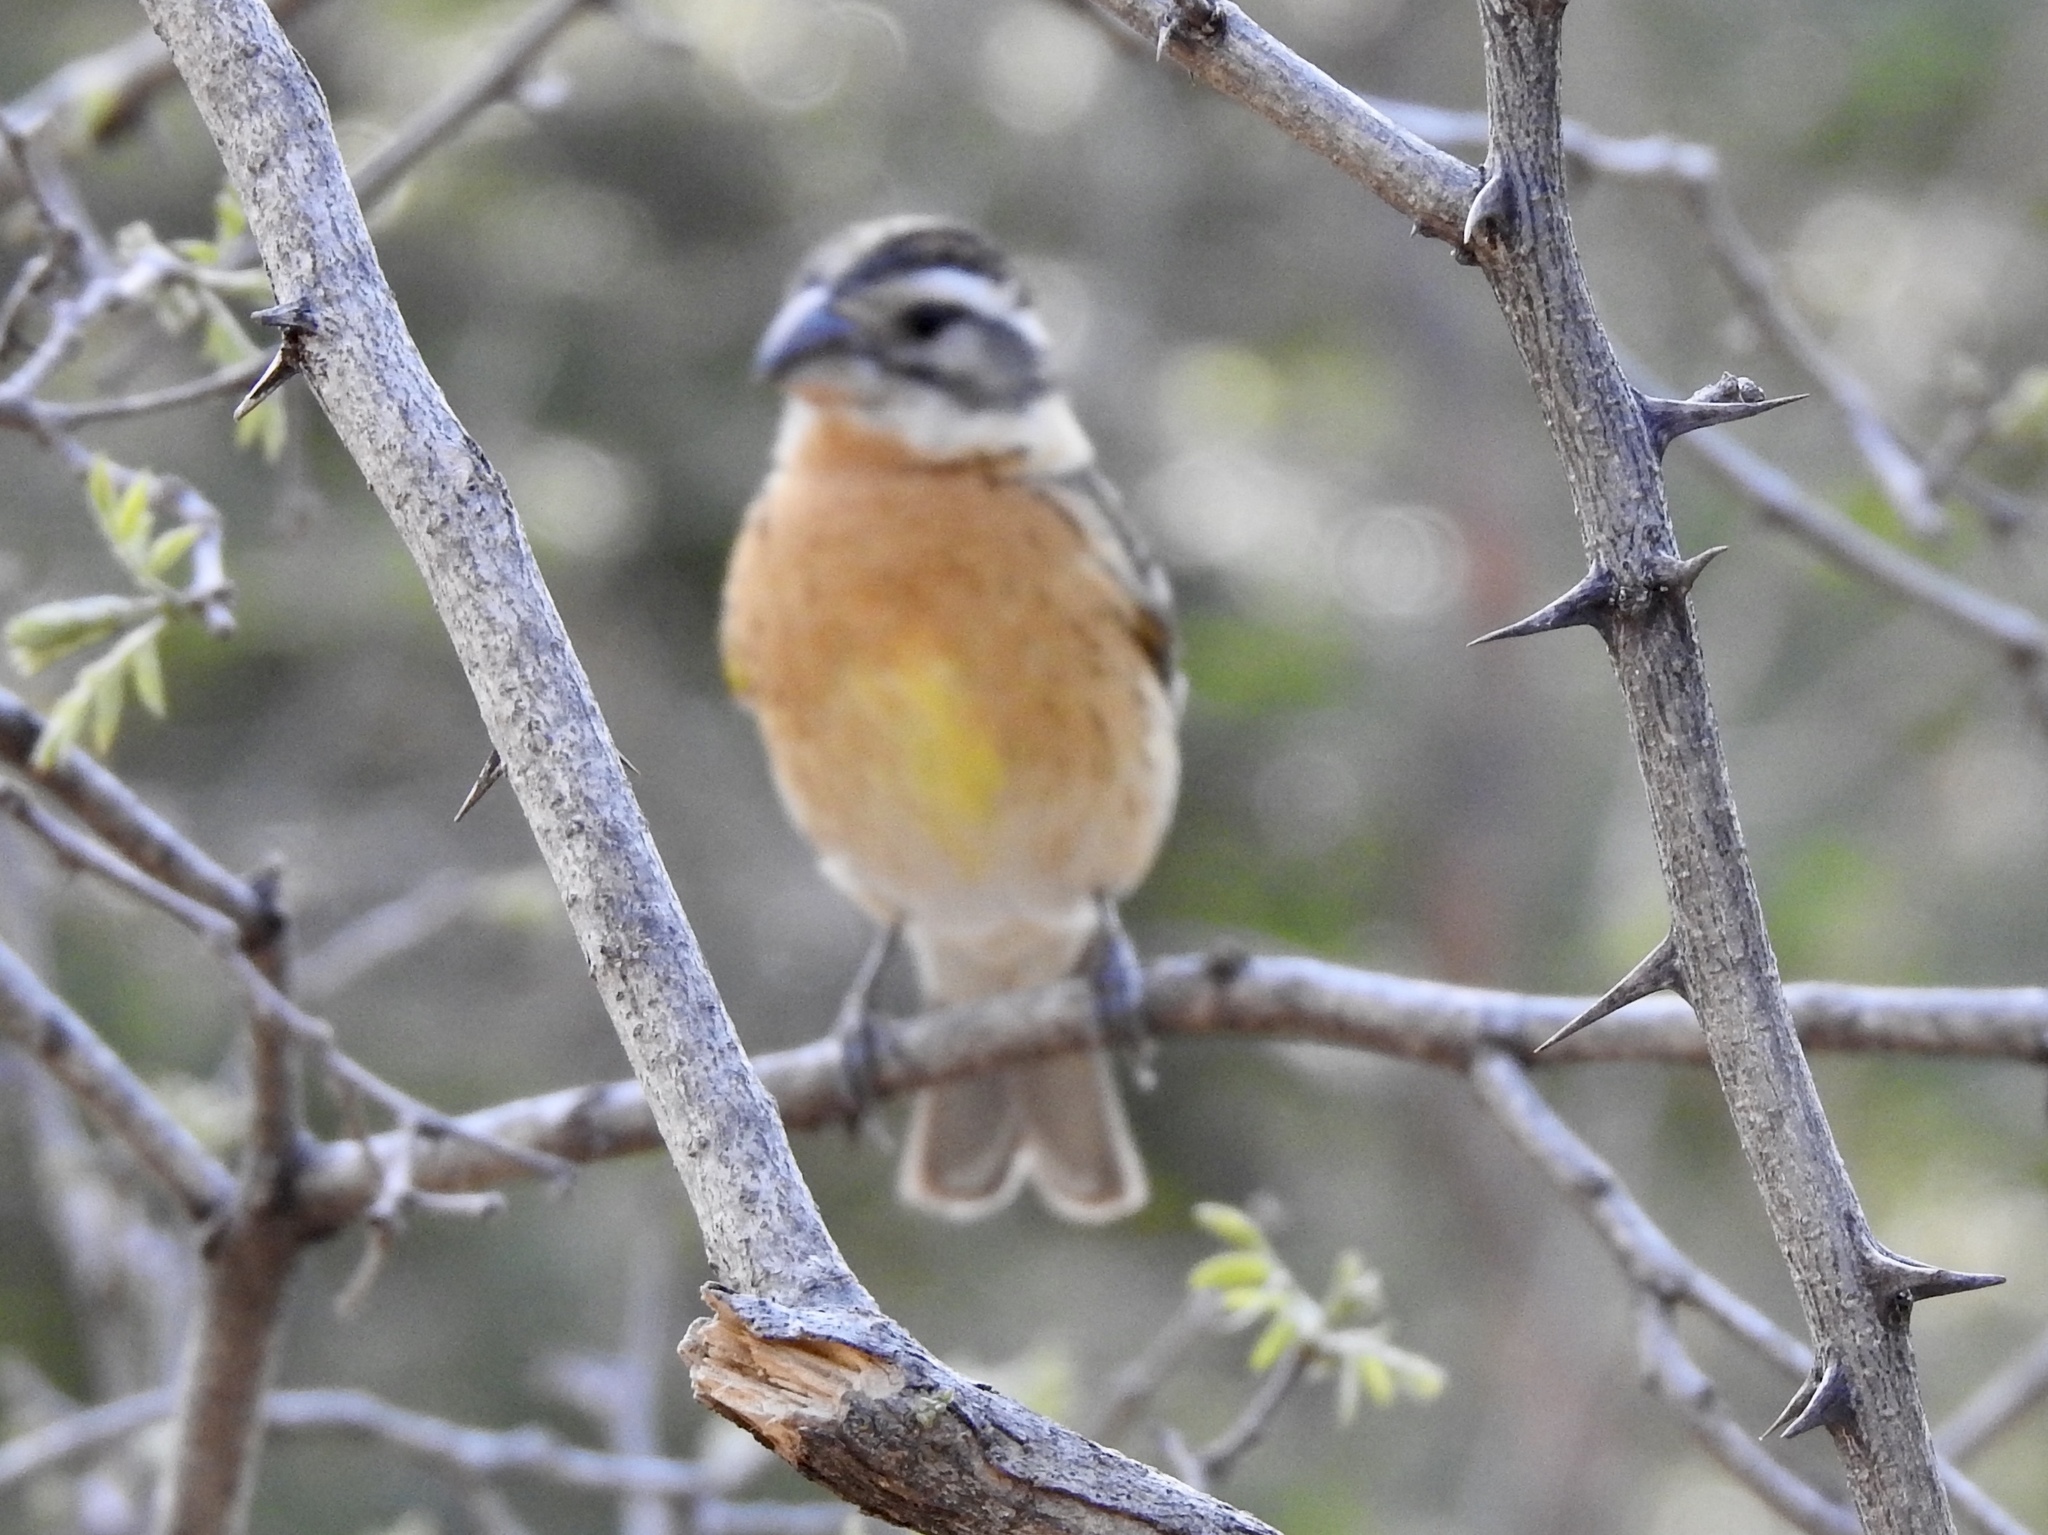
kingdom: Animalia
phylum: Chordata
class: Aves
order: Passeriformes
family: Cardinalidae
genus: Pheucticus
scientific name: Pheucticus melanocephalus
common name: Black-headed grosbeak
